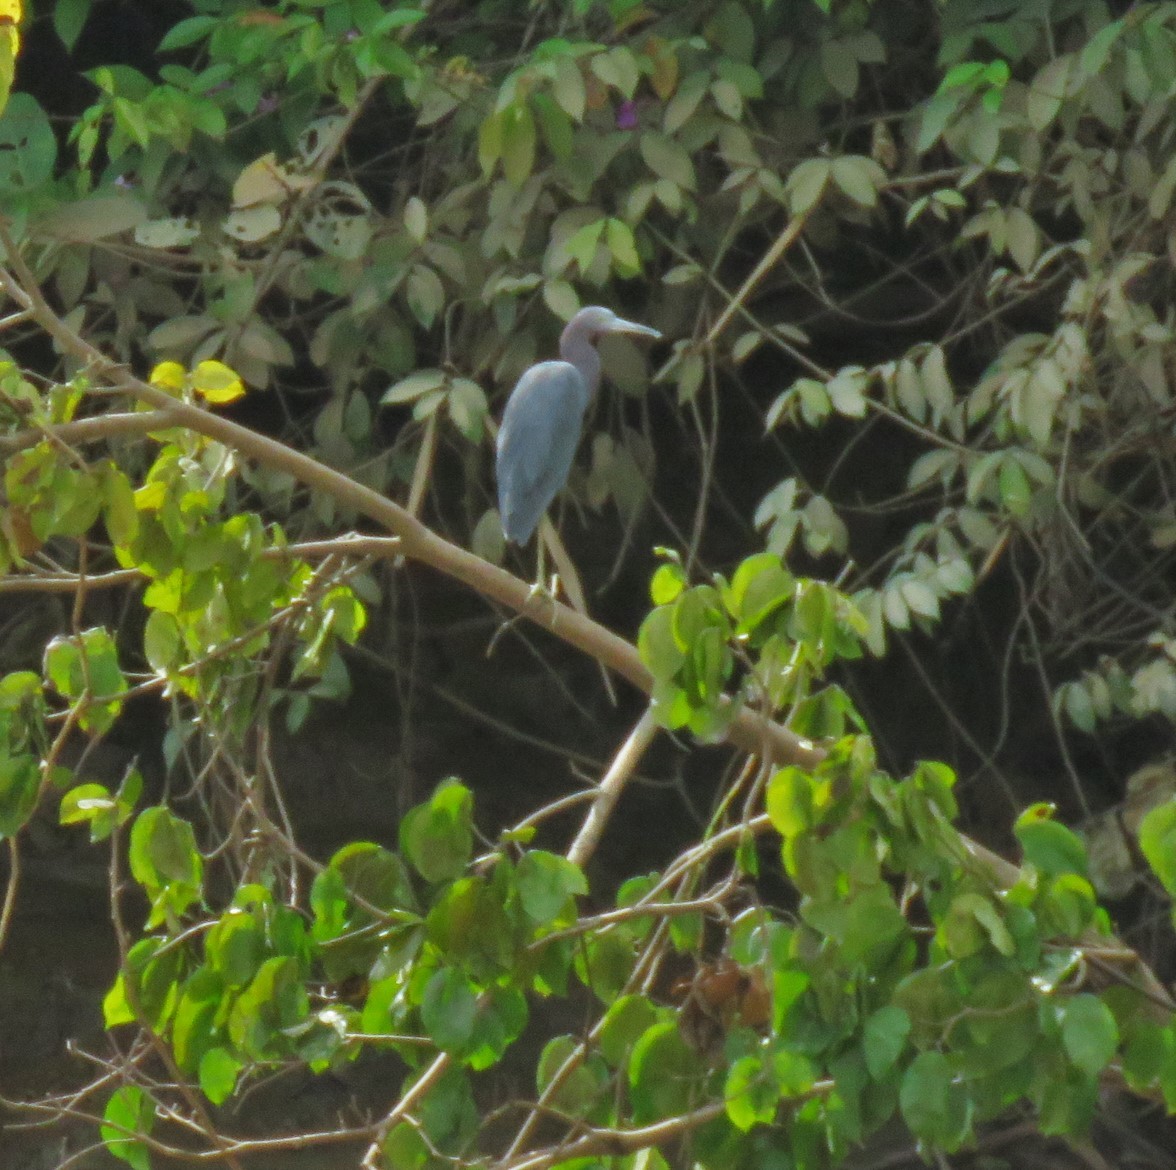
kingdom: Animalia
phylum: Chordata
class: Aves
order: Pelecaniformes
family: Ardeidae
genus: Egretta
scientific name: Egretta caerulea
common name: Little blue heron
